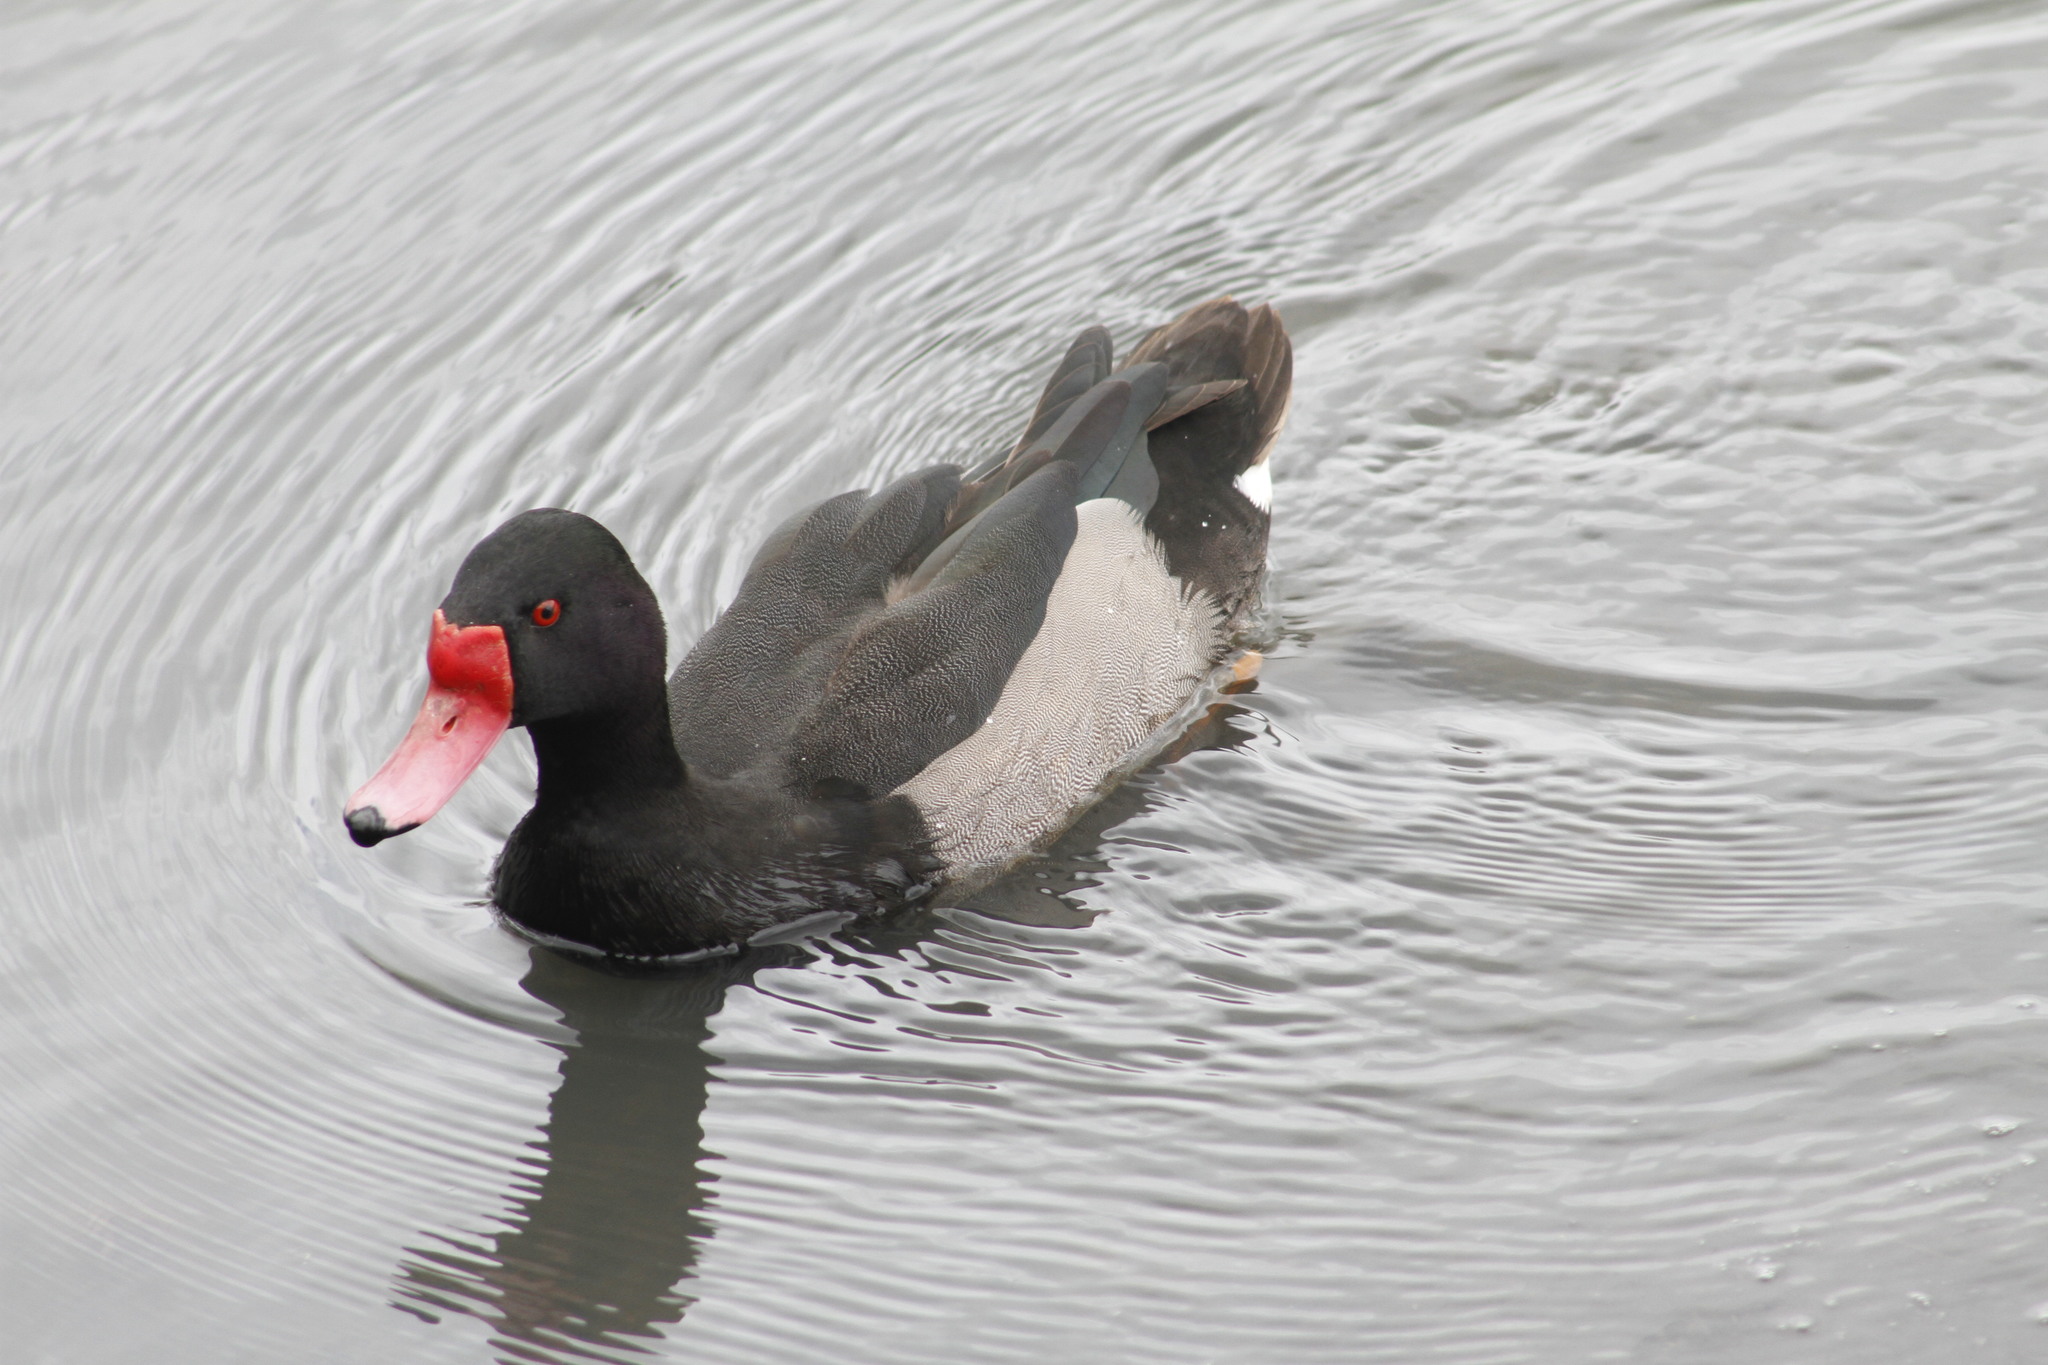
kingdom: Animalia
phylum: Chordata
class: Aves
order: Anseriformes
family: Anatidae
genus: Netta
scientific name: Netta peposaca
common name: Rosy-billed pochard
